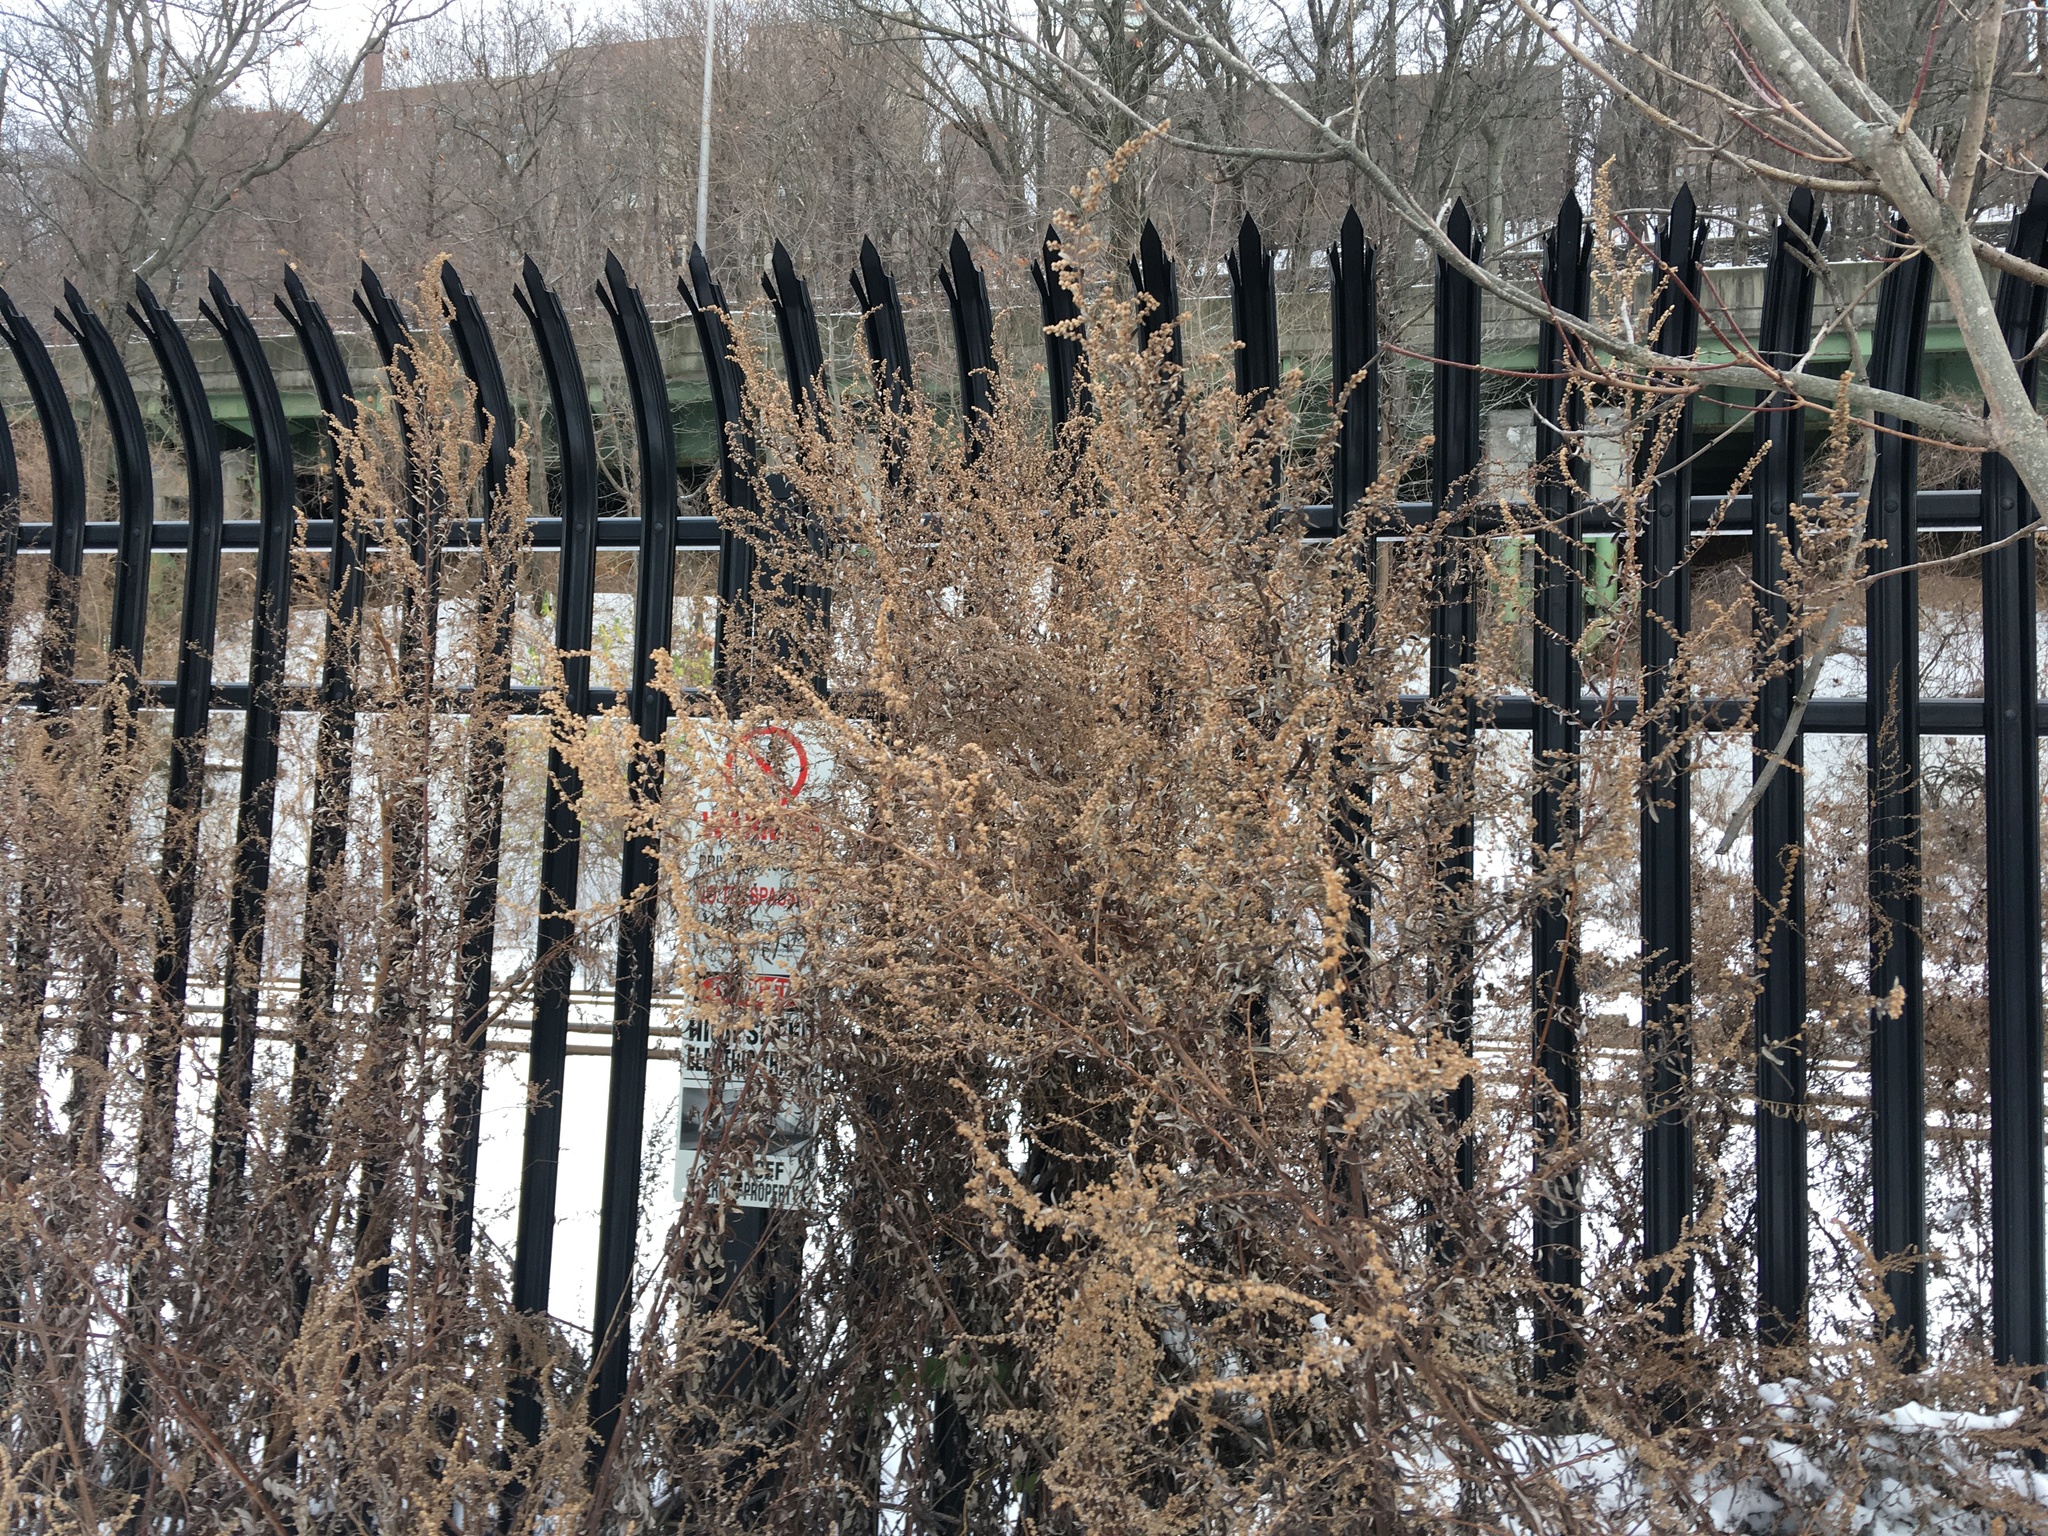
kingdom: Plantae
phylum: Tracheophyta
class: Magnoliopsida
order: Asterales
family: Asteraceae
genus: Artemisia
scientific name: Artemisia vulgaris
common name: Mugwort
